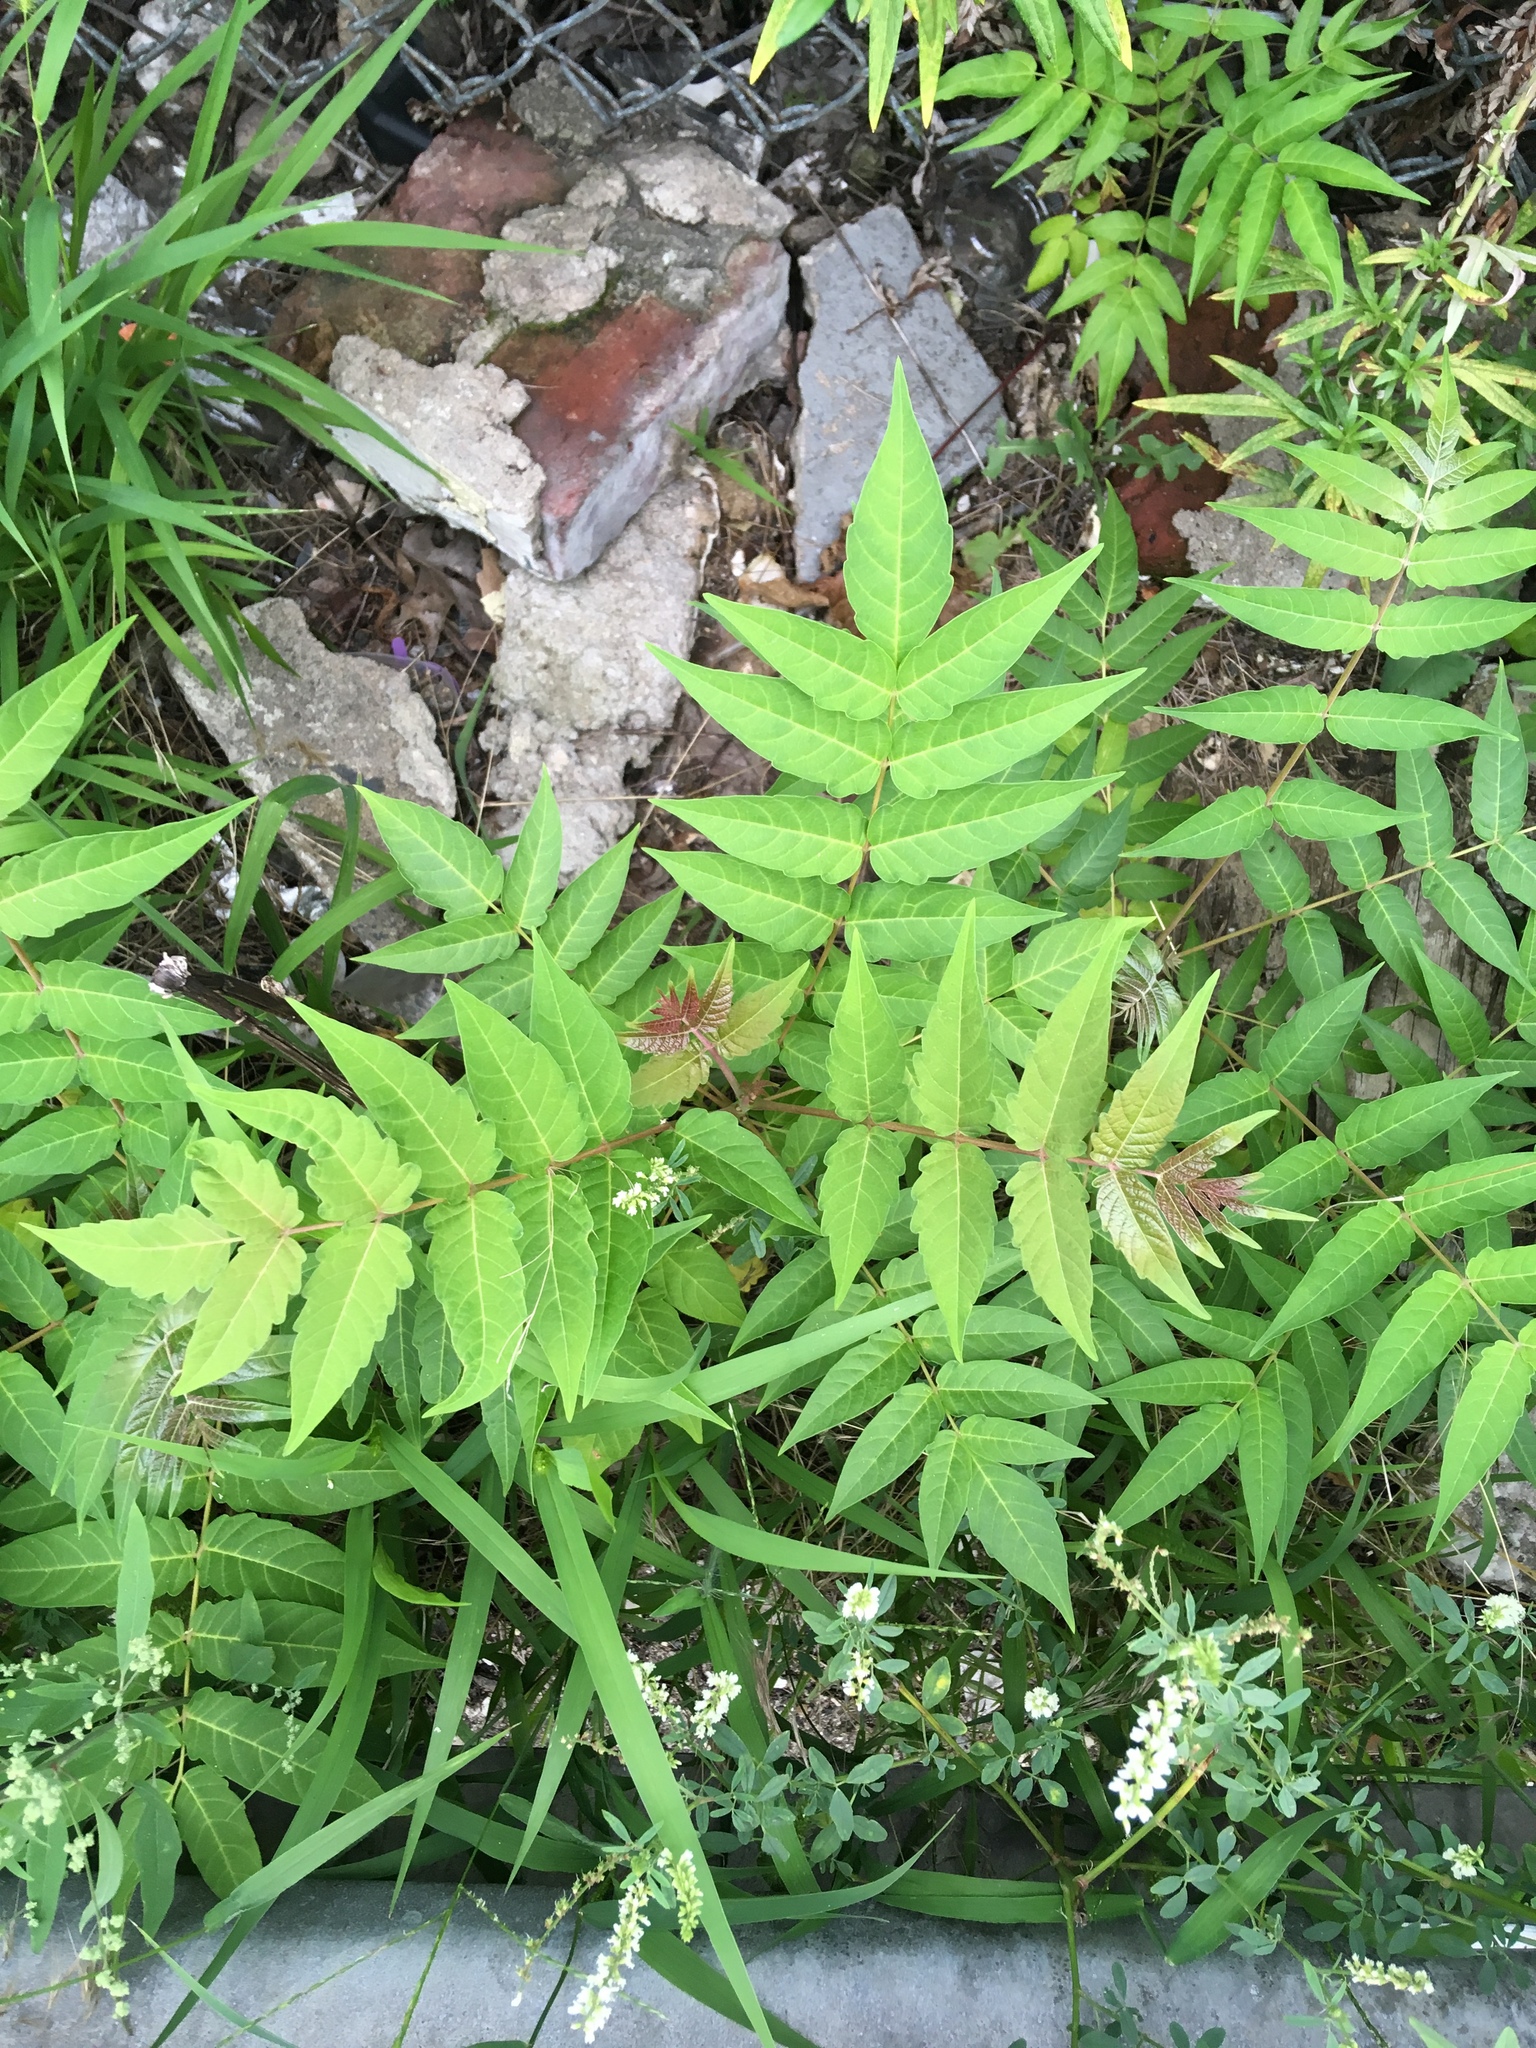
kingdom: Plantae
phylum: Tracheophyta
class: Magnoliopsida
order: Sapindales
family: Simaroubaceae
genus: Ailanthus
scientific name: Ailanthus altissima
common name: Tree-of-heaven
